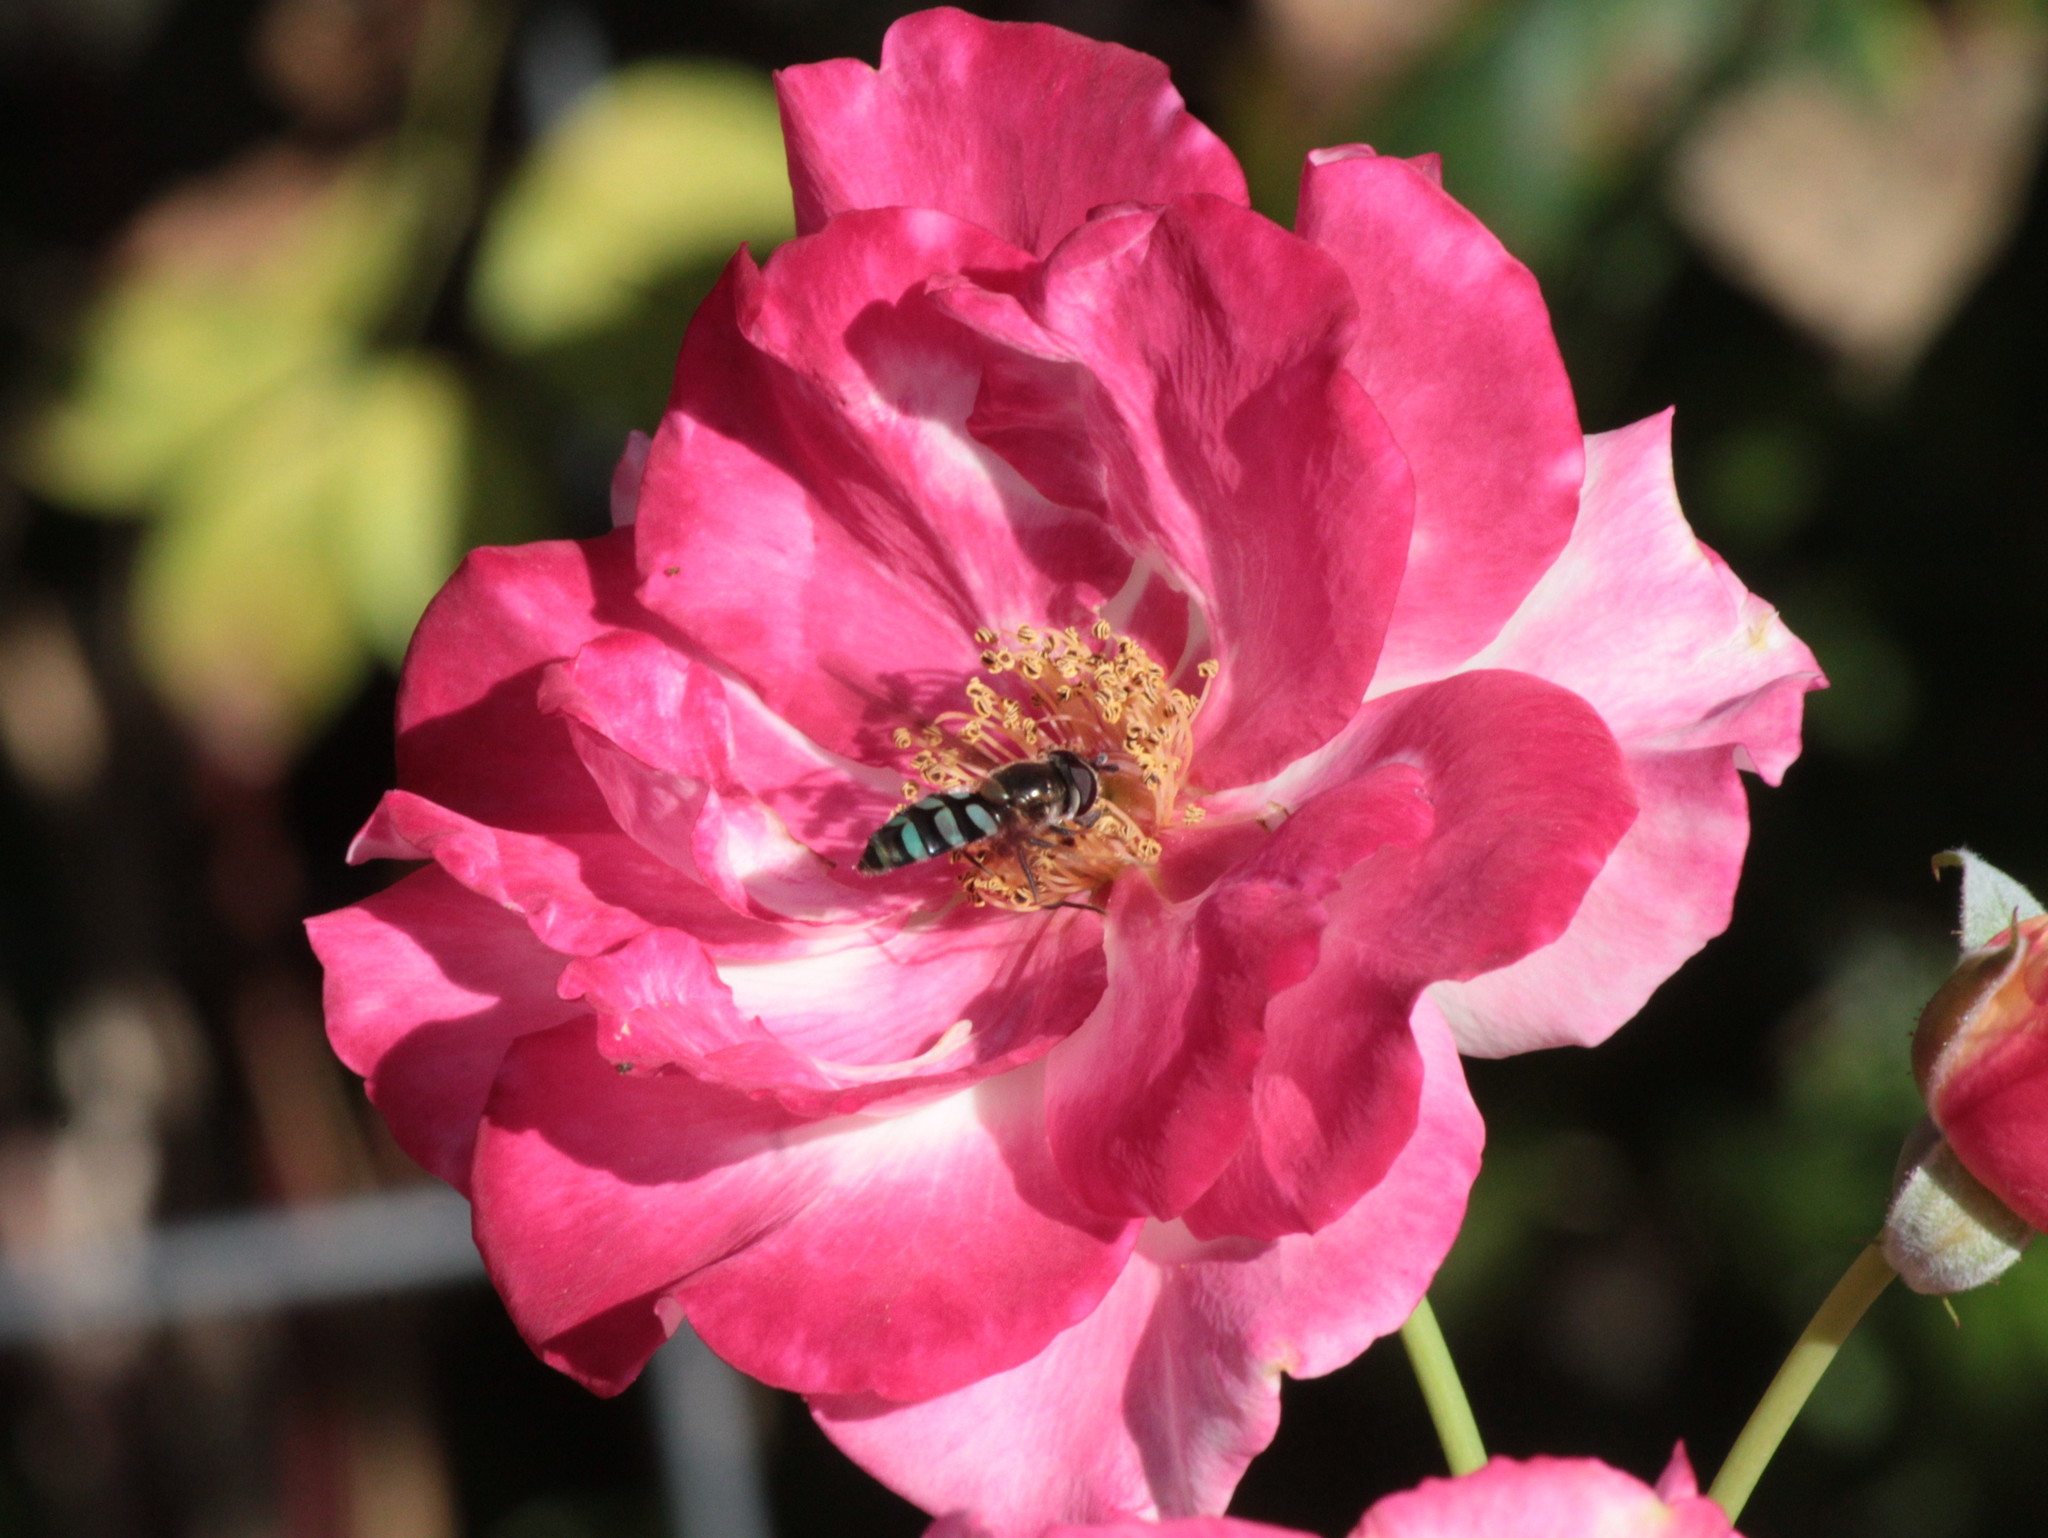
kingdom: Animalia
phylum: Arthropoda
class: Insecta
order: Diptera
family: Syrphidae
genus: Megasyrphus
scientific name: Megasyrphus laxus
